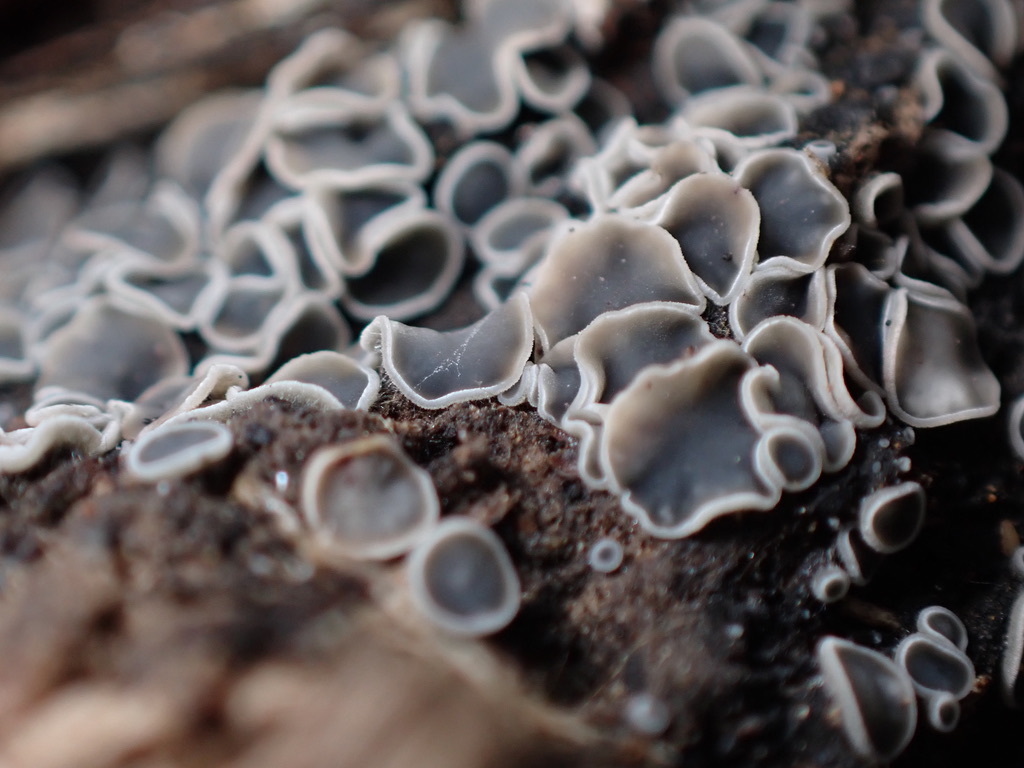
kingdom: Fungi
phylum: Ascomycota
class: Leotiomycetes
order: Helotiales
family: Mollisiaceae
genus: Mollisia
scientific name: Mollisia cinerea
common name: Common grey disco
